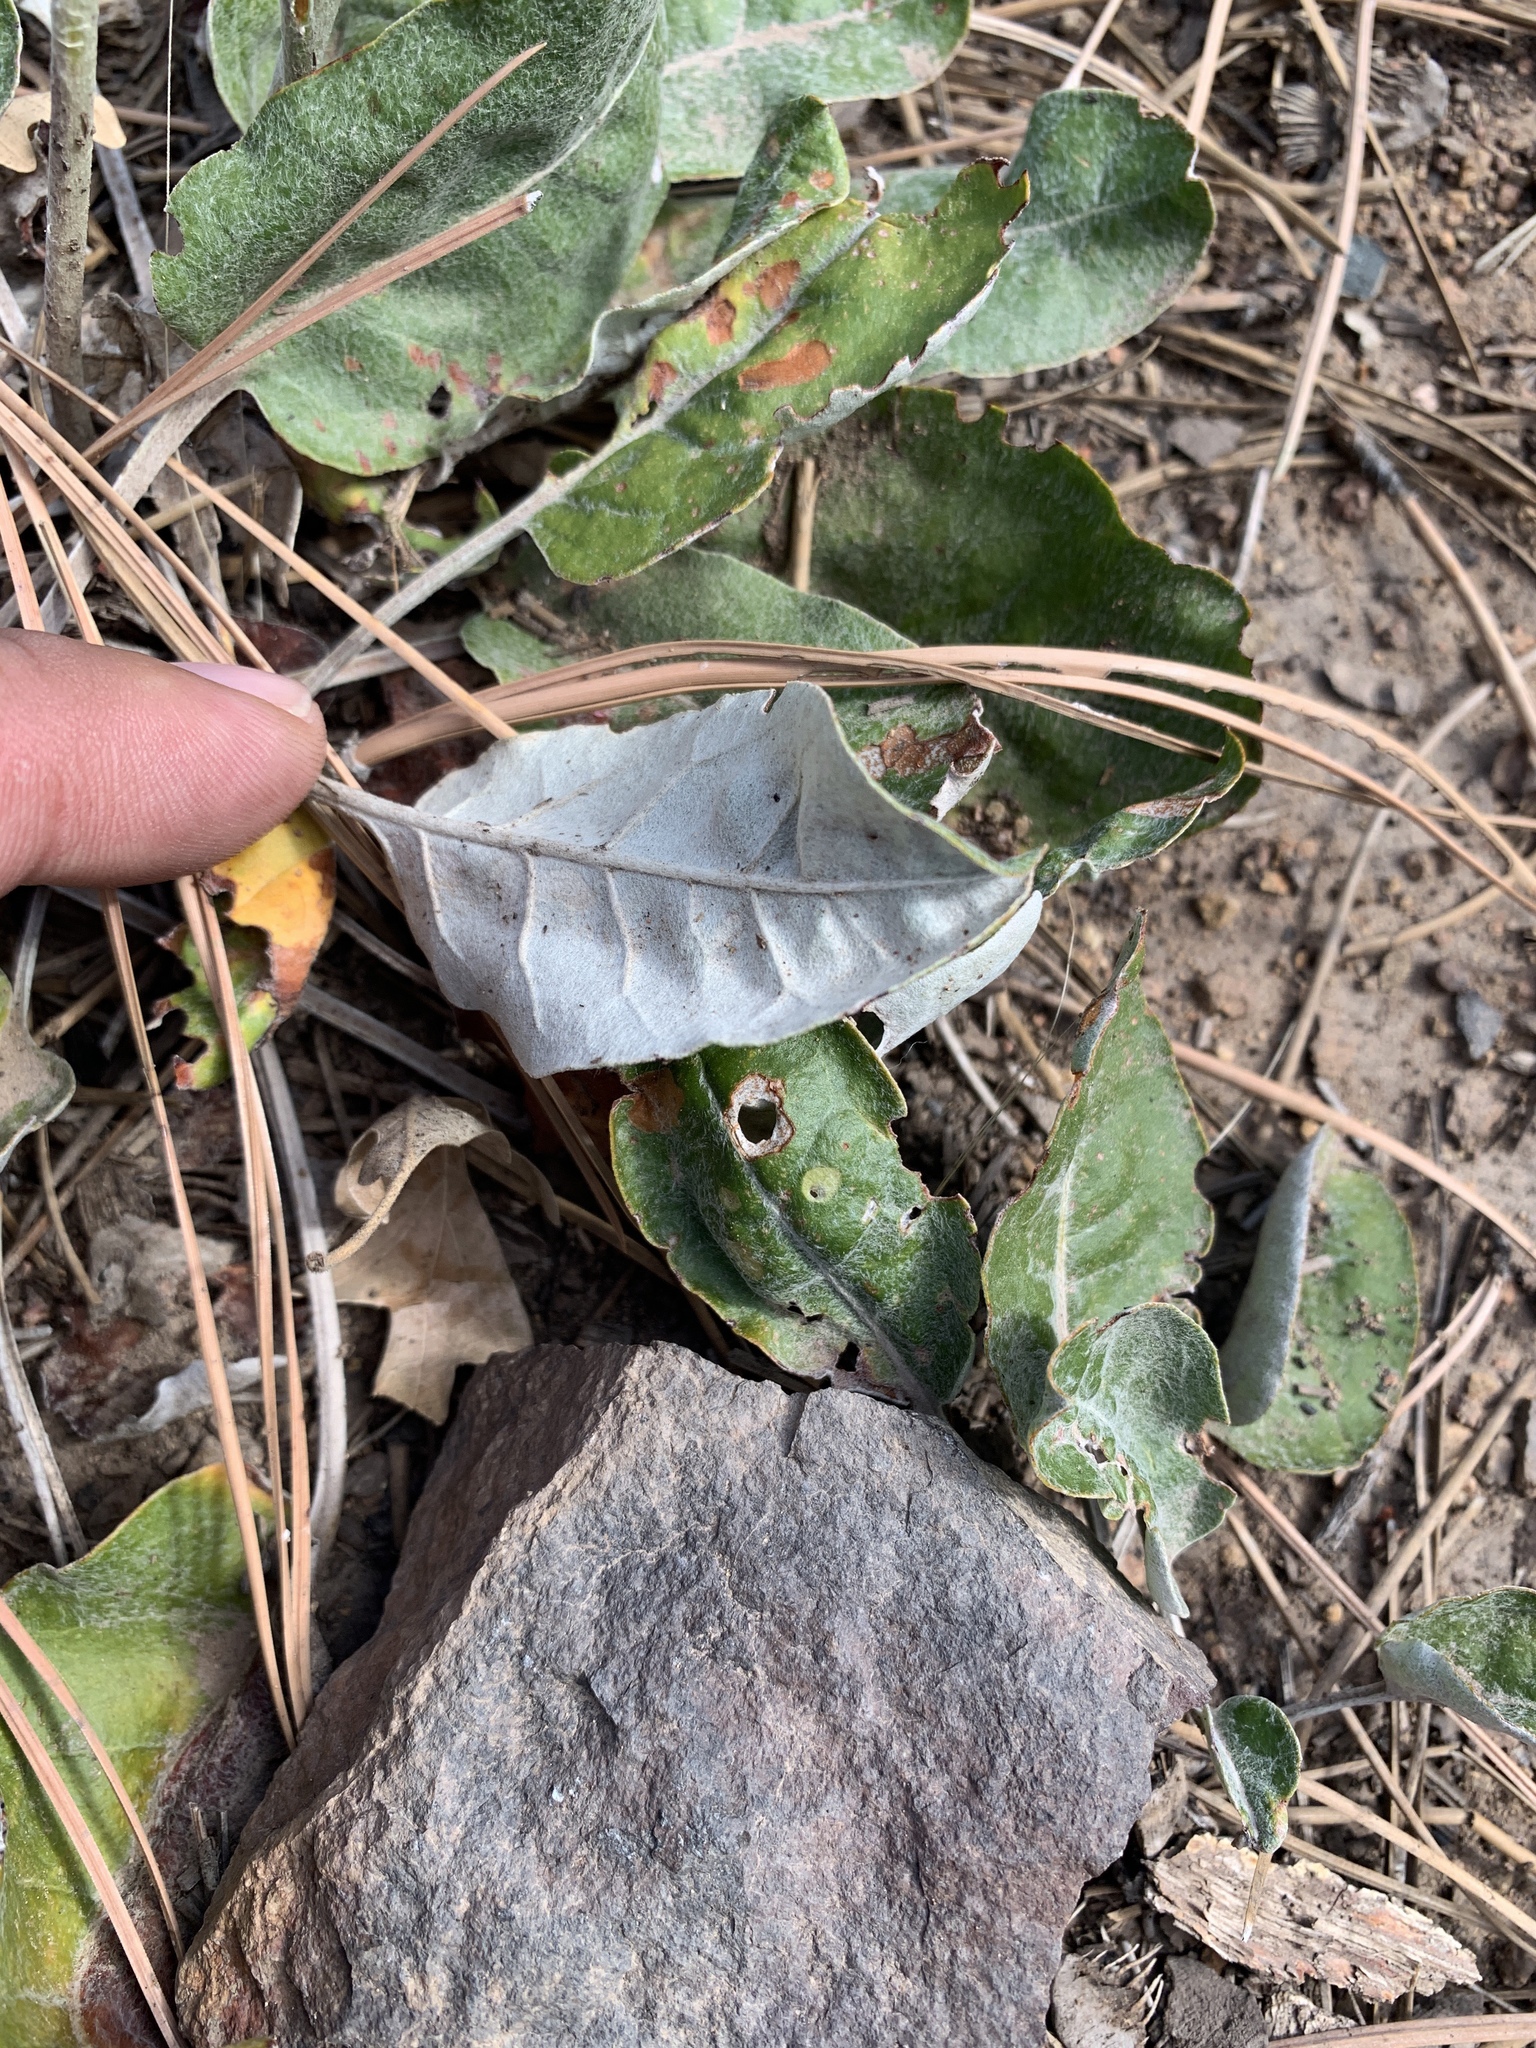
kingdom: Plantae
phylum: Tracheophyta
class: Magnoliopsida
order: Caryophyllales
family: Polygonaceae
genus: Eriogonum
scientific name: Eriogonum racemosum
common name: Redroot wild buckwheat
